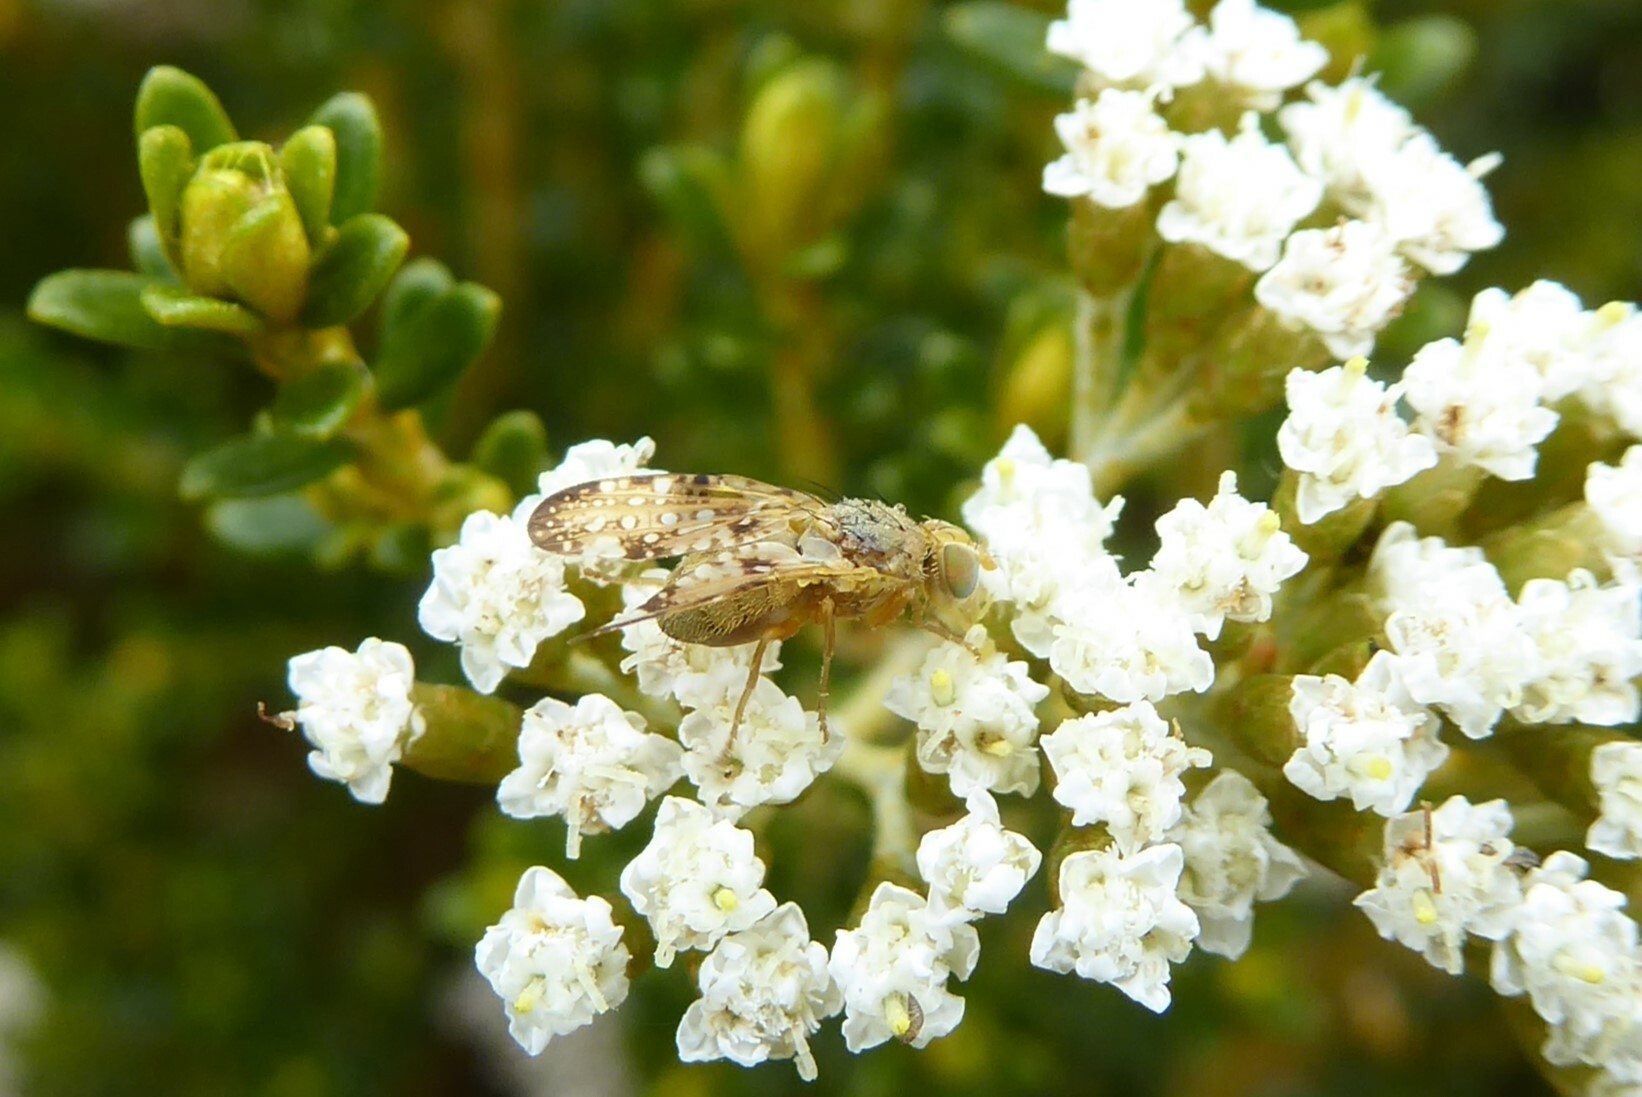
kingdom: Animalia
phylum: Arthropoda
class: Insecta
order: Diptera
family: Tephritidae
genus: Austrotephritis
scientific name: Austrotephritis
